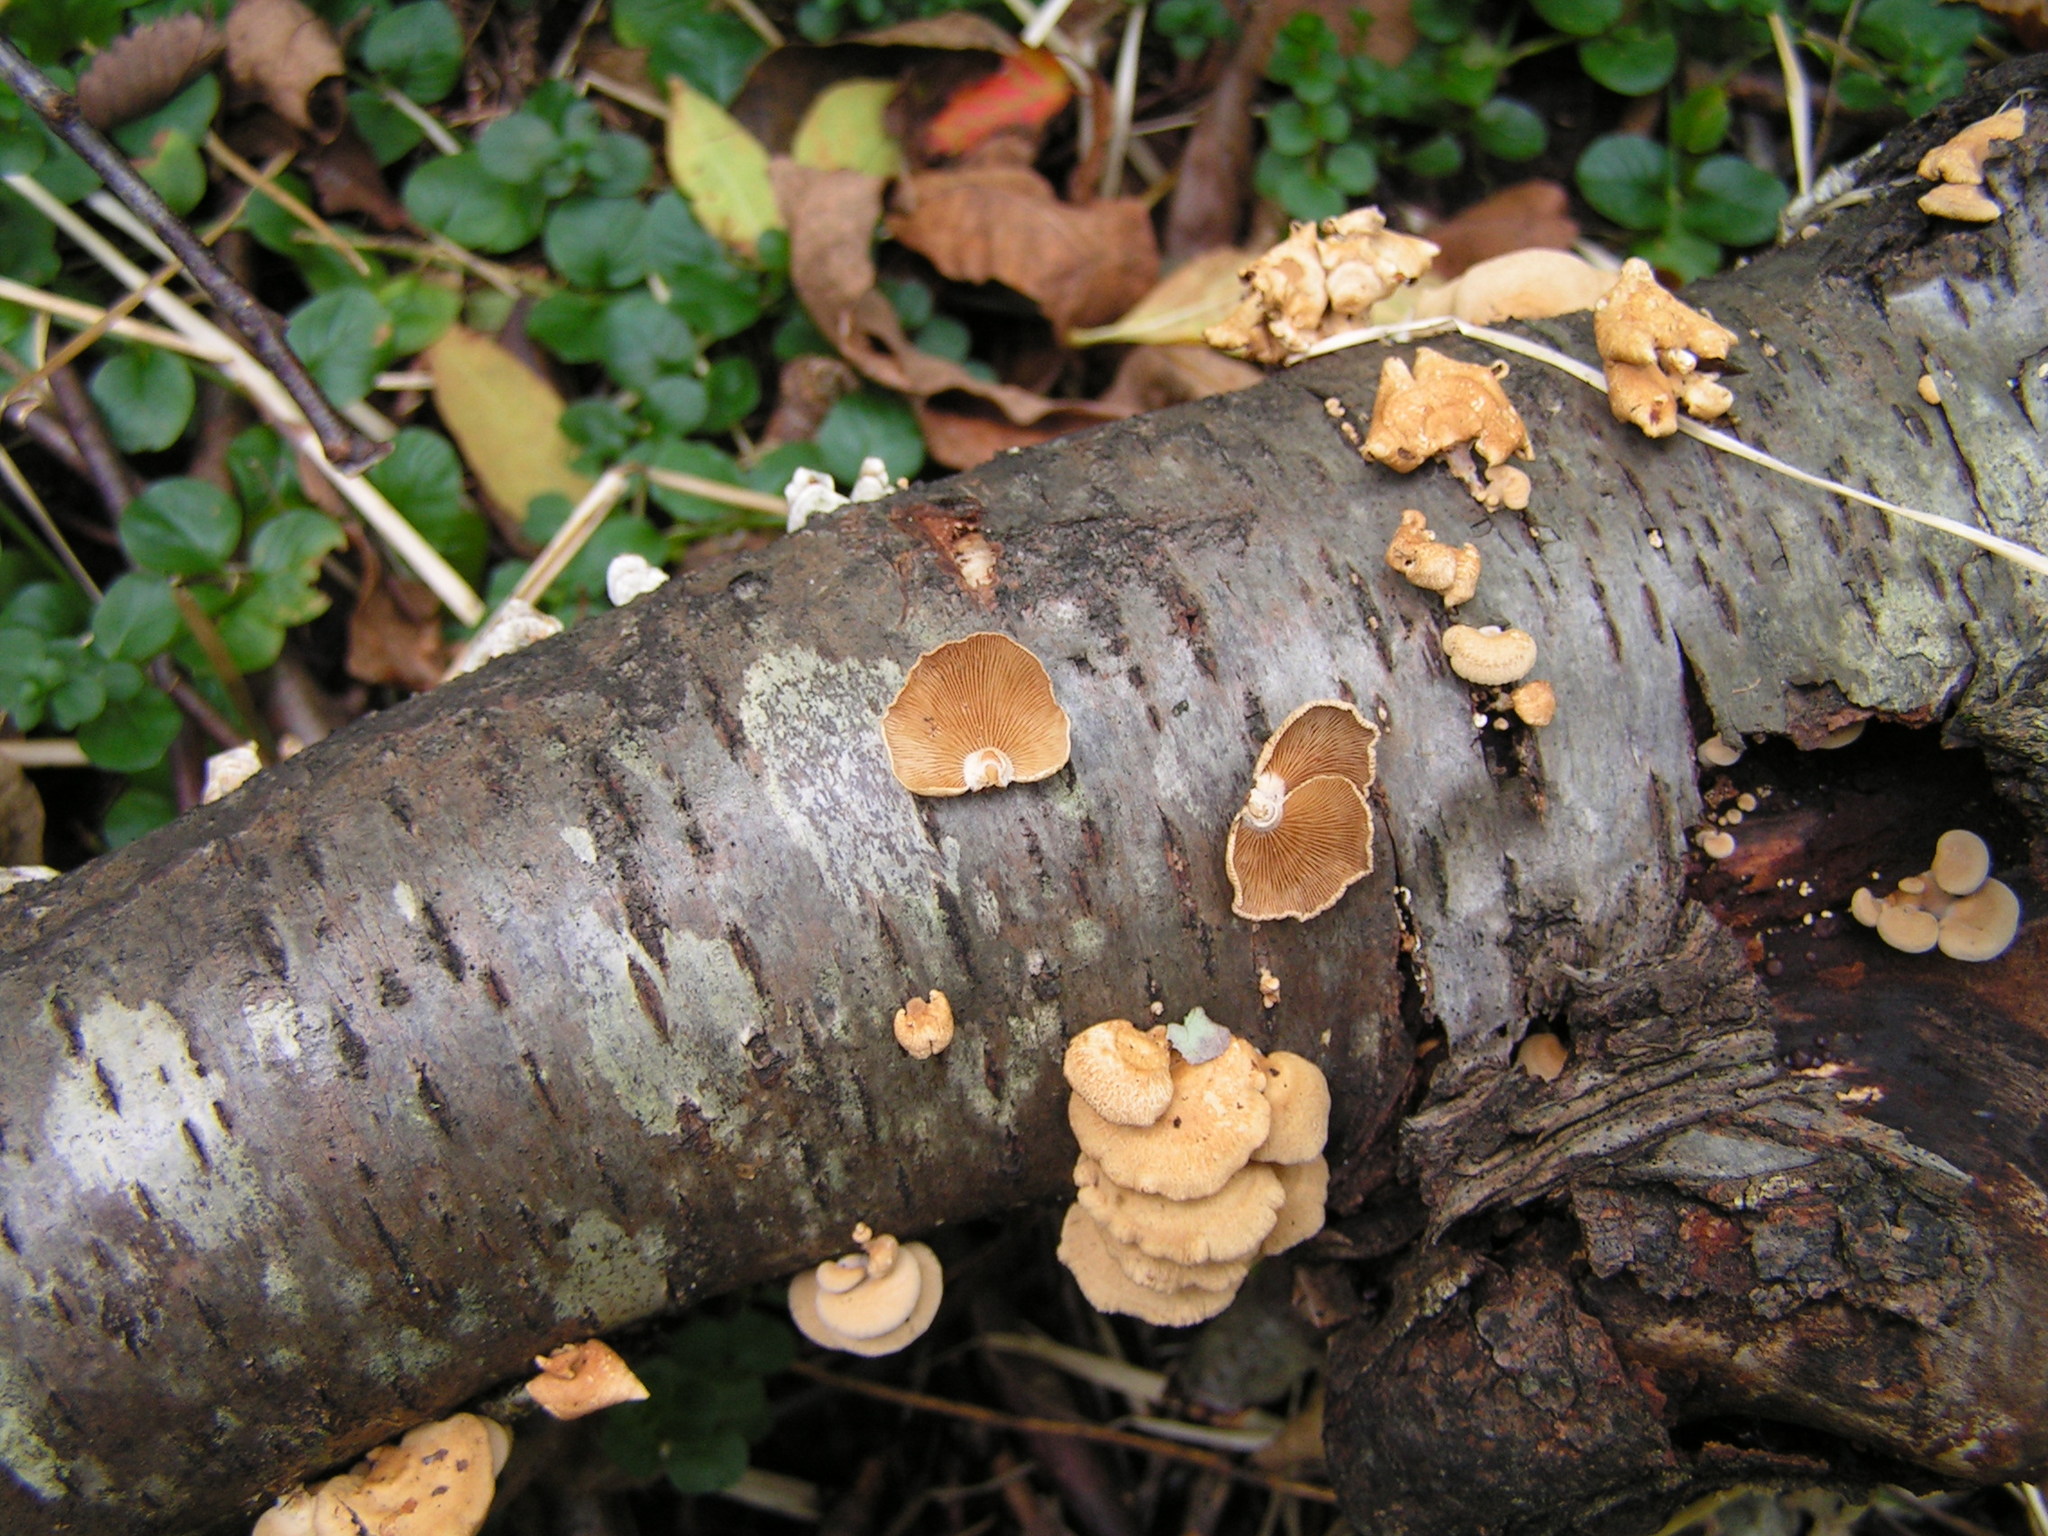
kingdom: Fungi
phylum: Basidiomycota
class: Agaricomycetes
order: Agaricales
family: Mycenaceae
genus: Panellus
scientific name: Panellus stipticus
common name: Bitter oysterling
